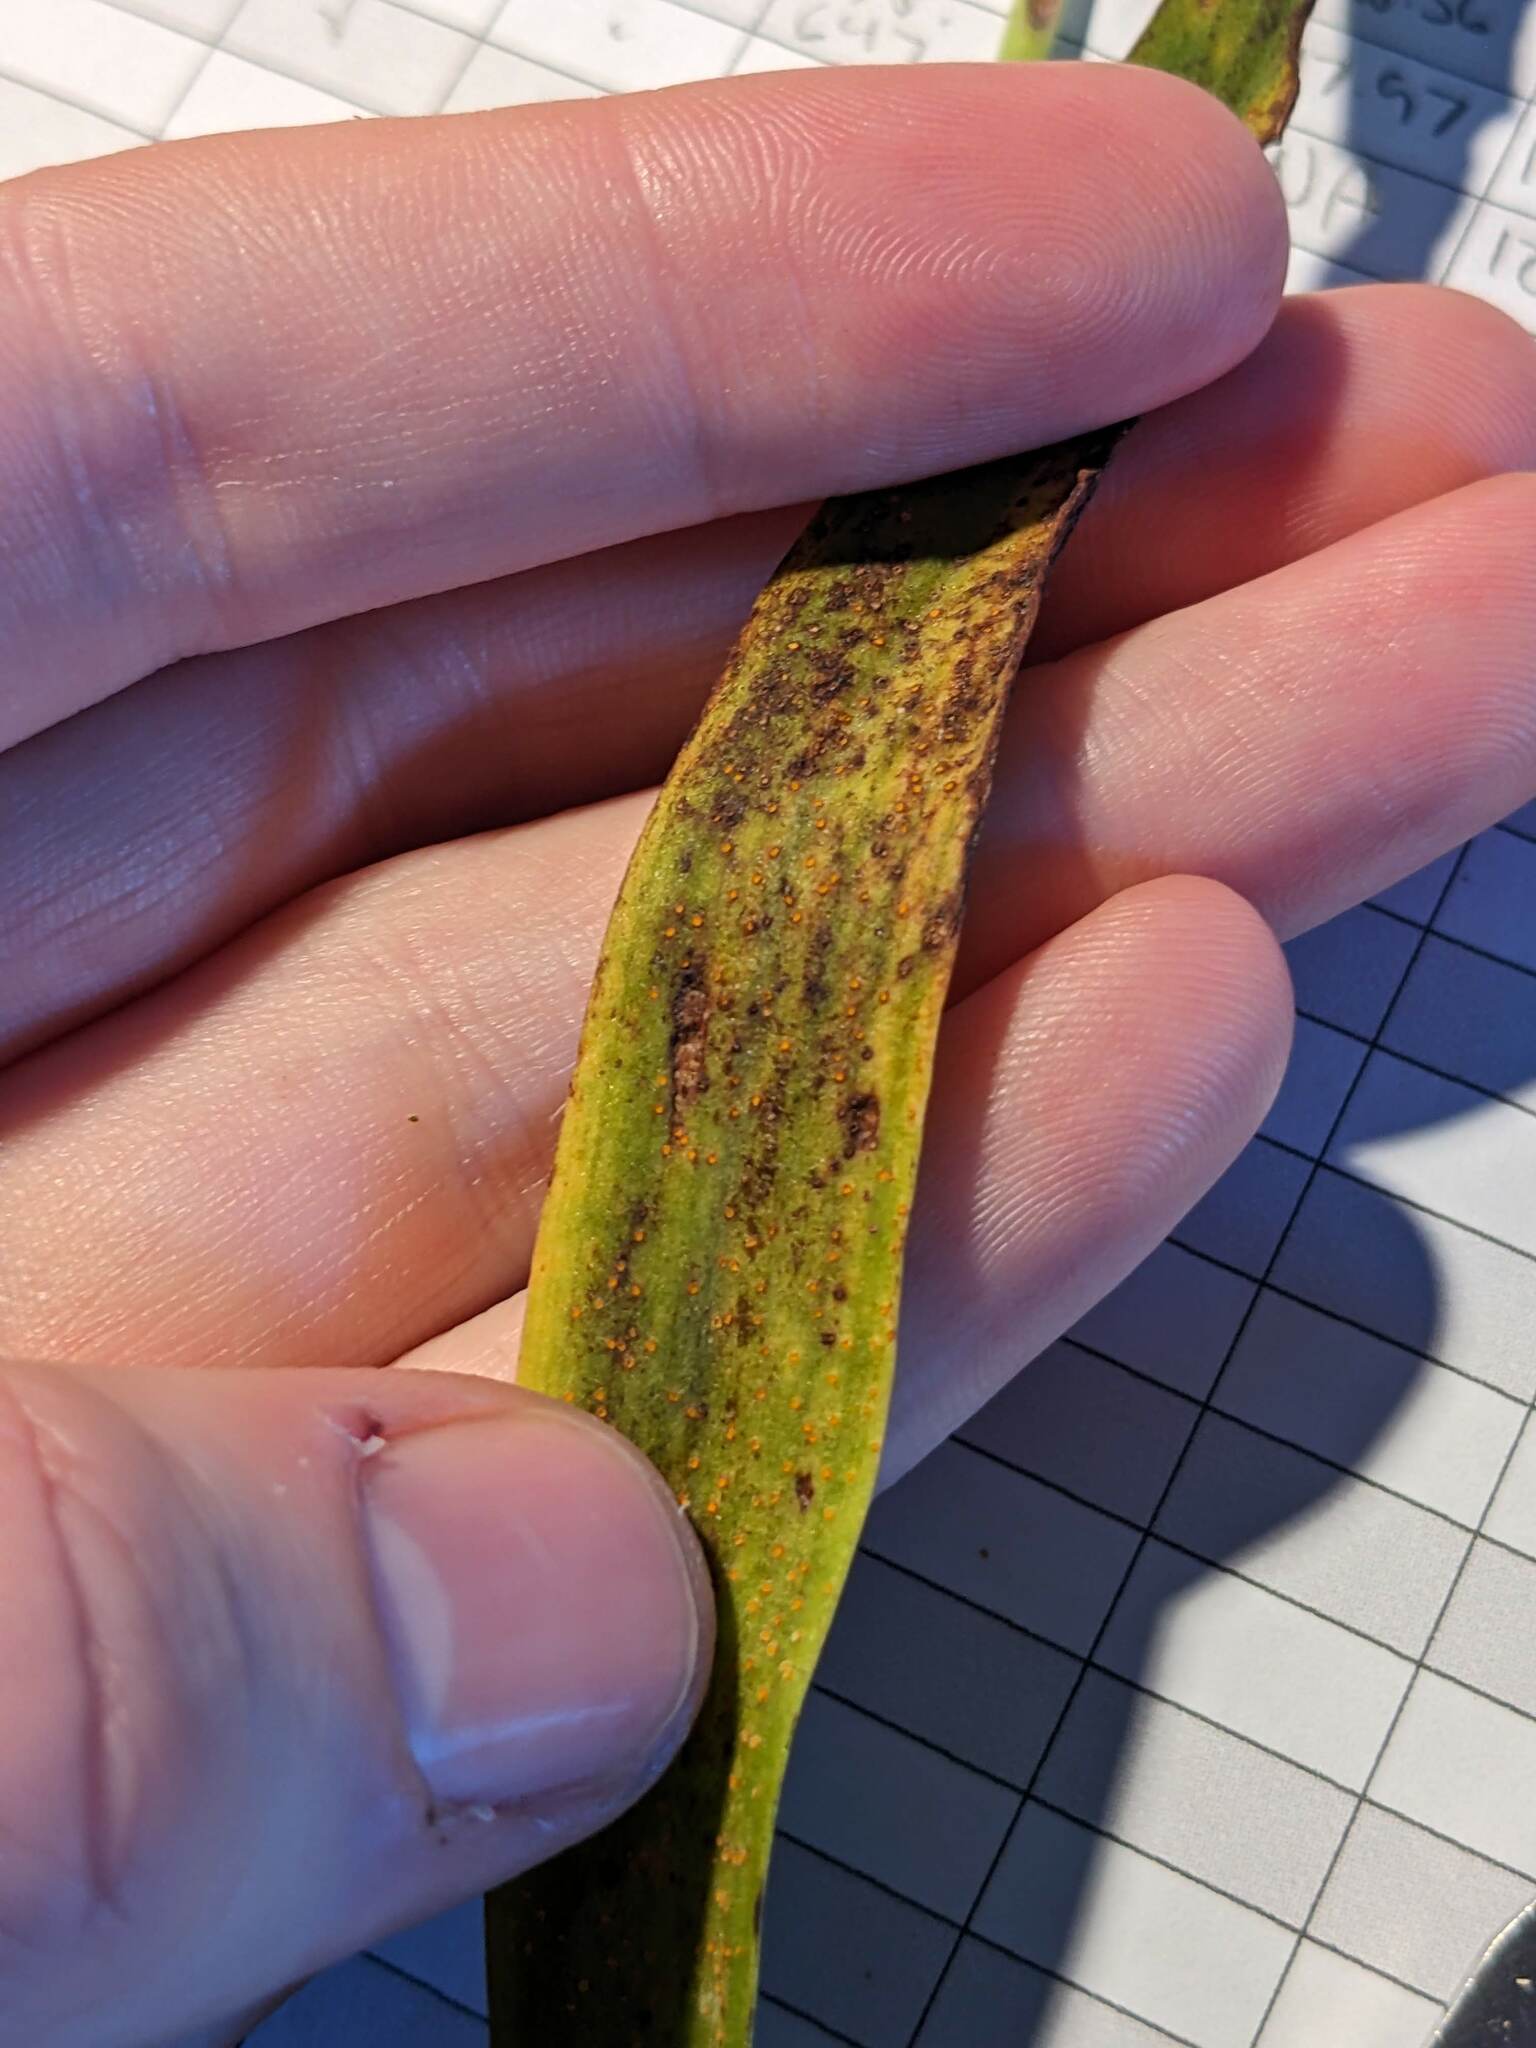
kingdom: Plantae
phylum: Tracheophyta
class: Liliopsida
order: Asparagales
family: Orchidaceae
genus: Thelymitra
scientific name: Thelymitra longifolia
